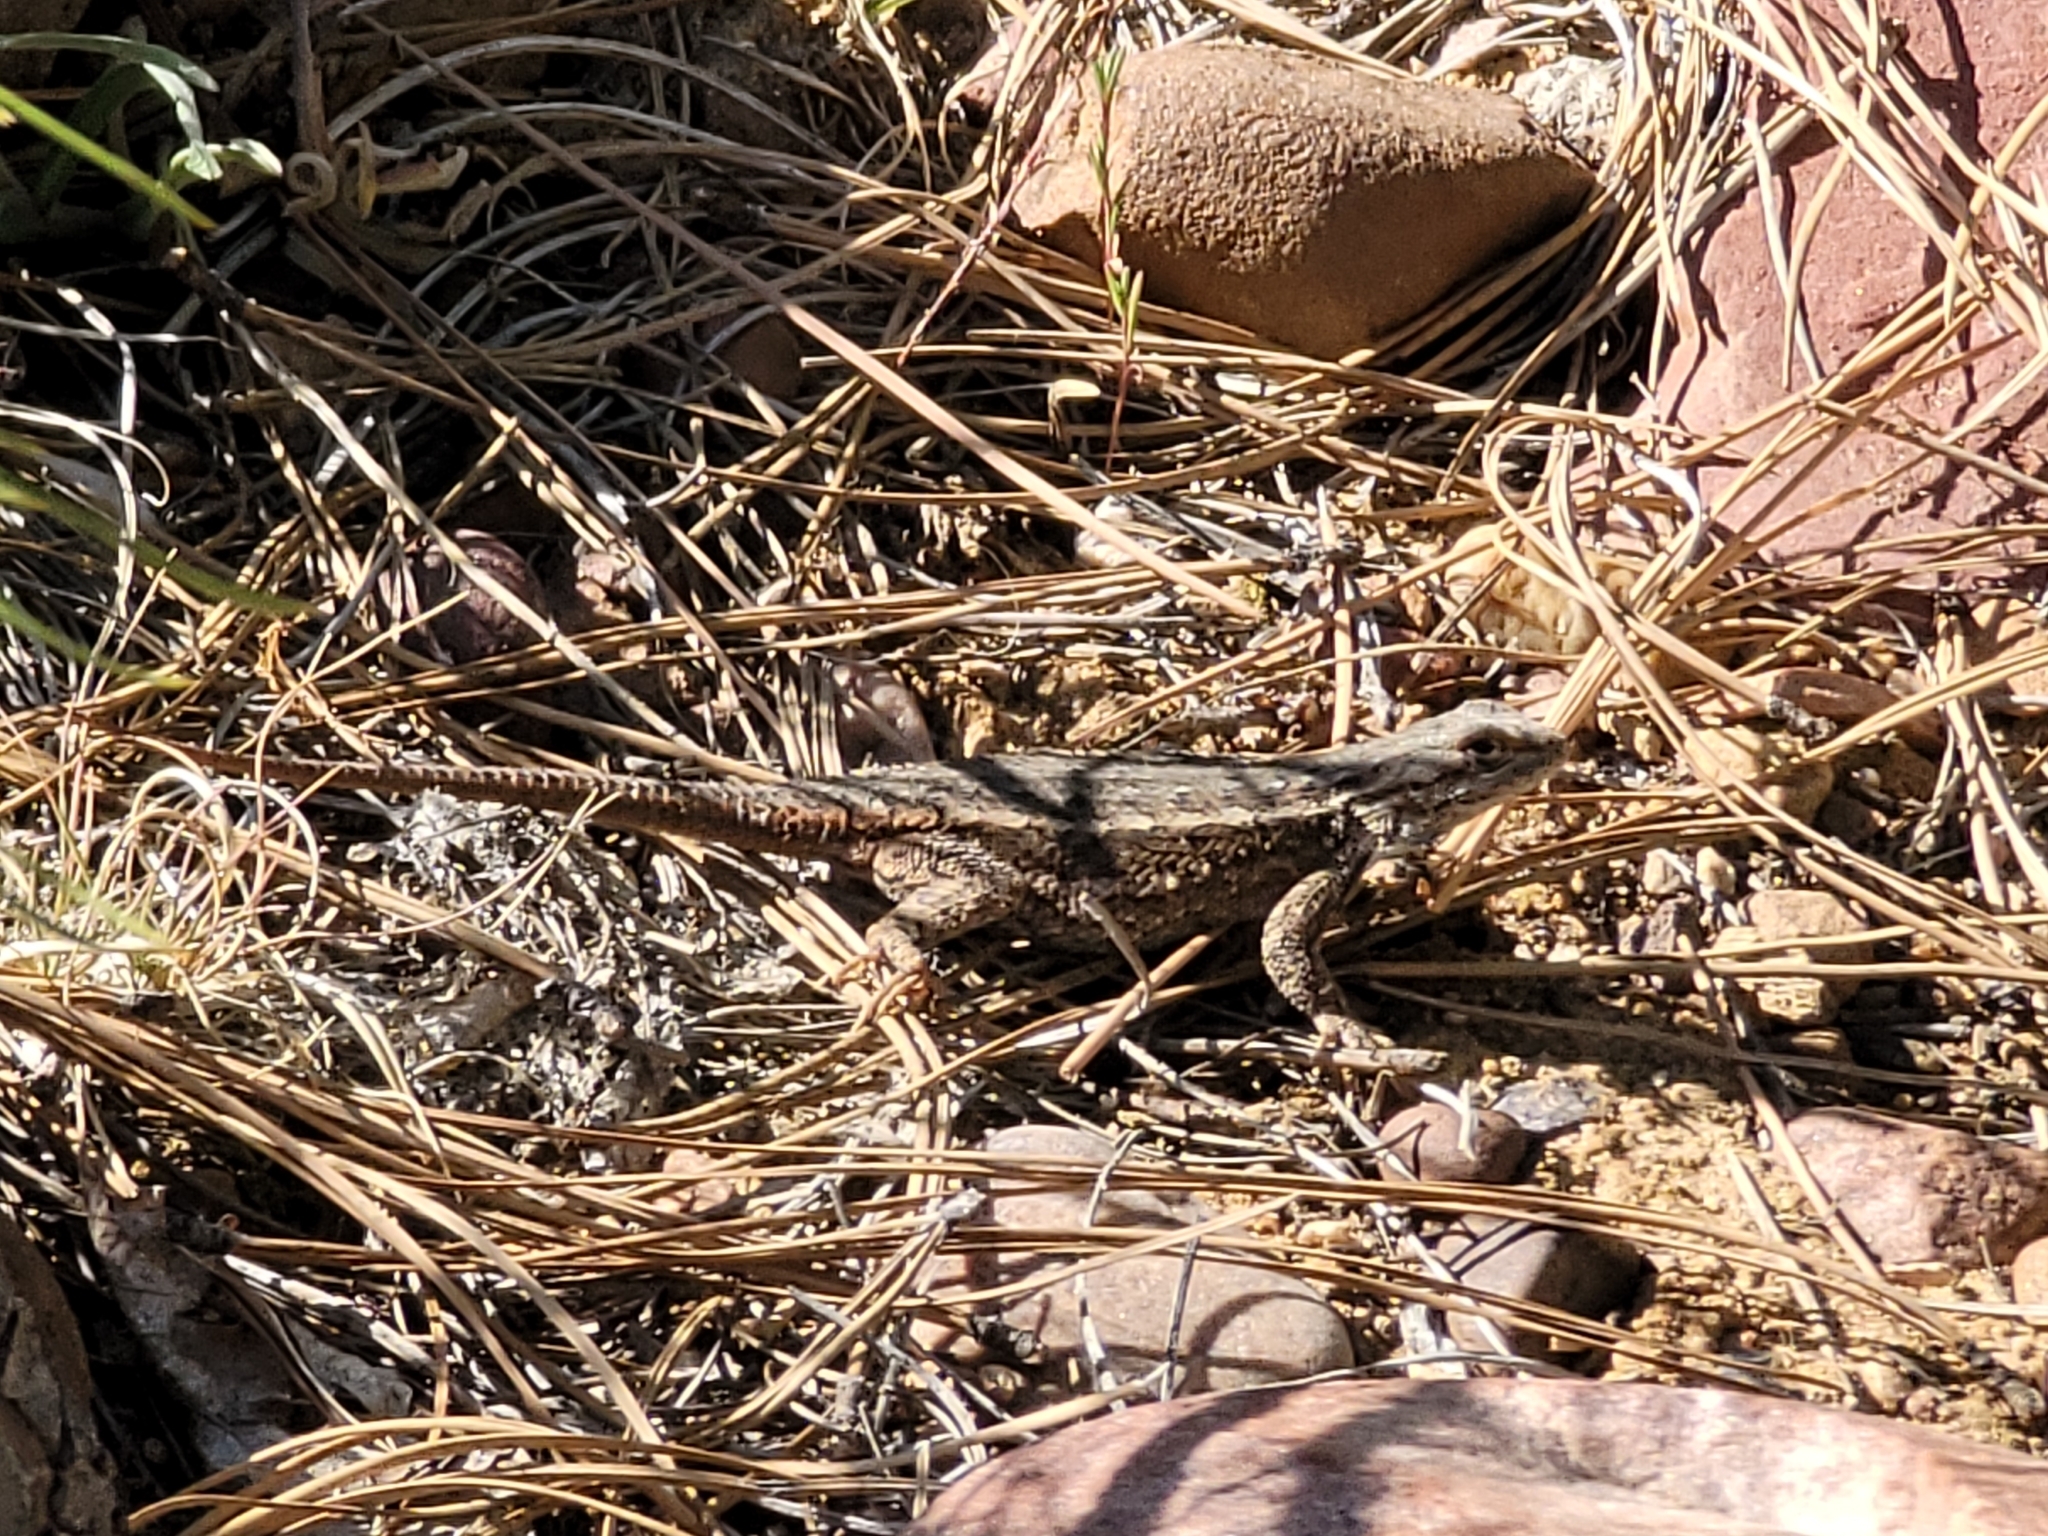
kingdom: Animalia
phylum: Chordata
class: Squamata
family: Phrynosomatidae
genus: Sceloporus
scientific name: Sceloporus tristichus
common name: Plateau fence lizard
